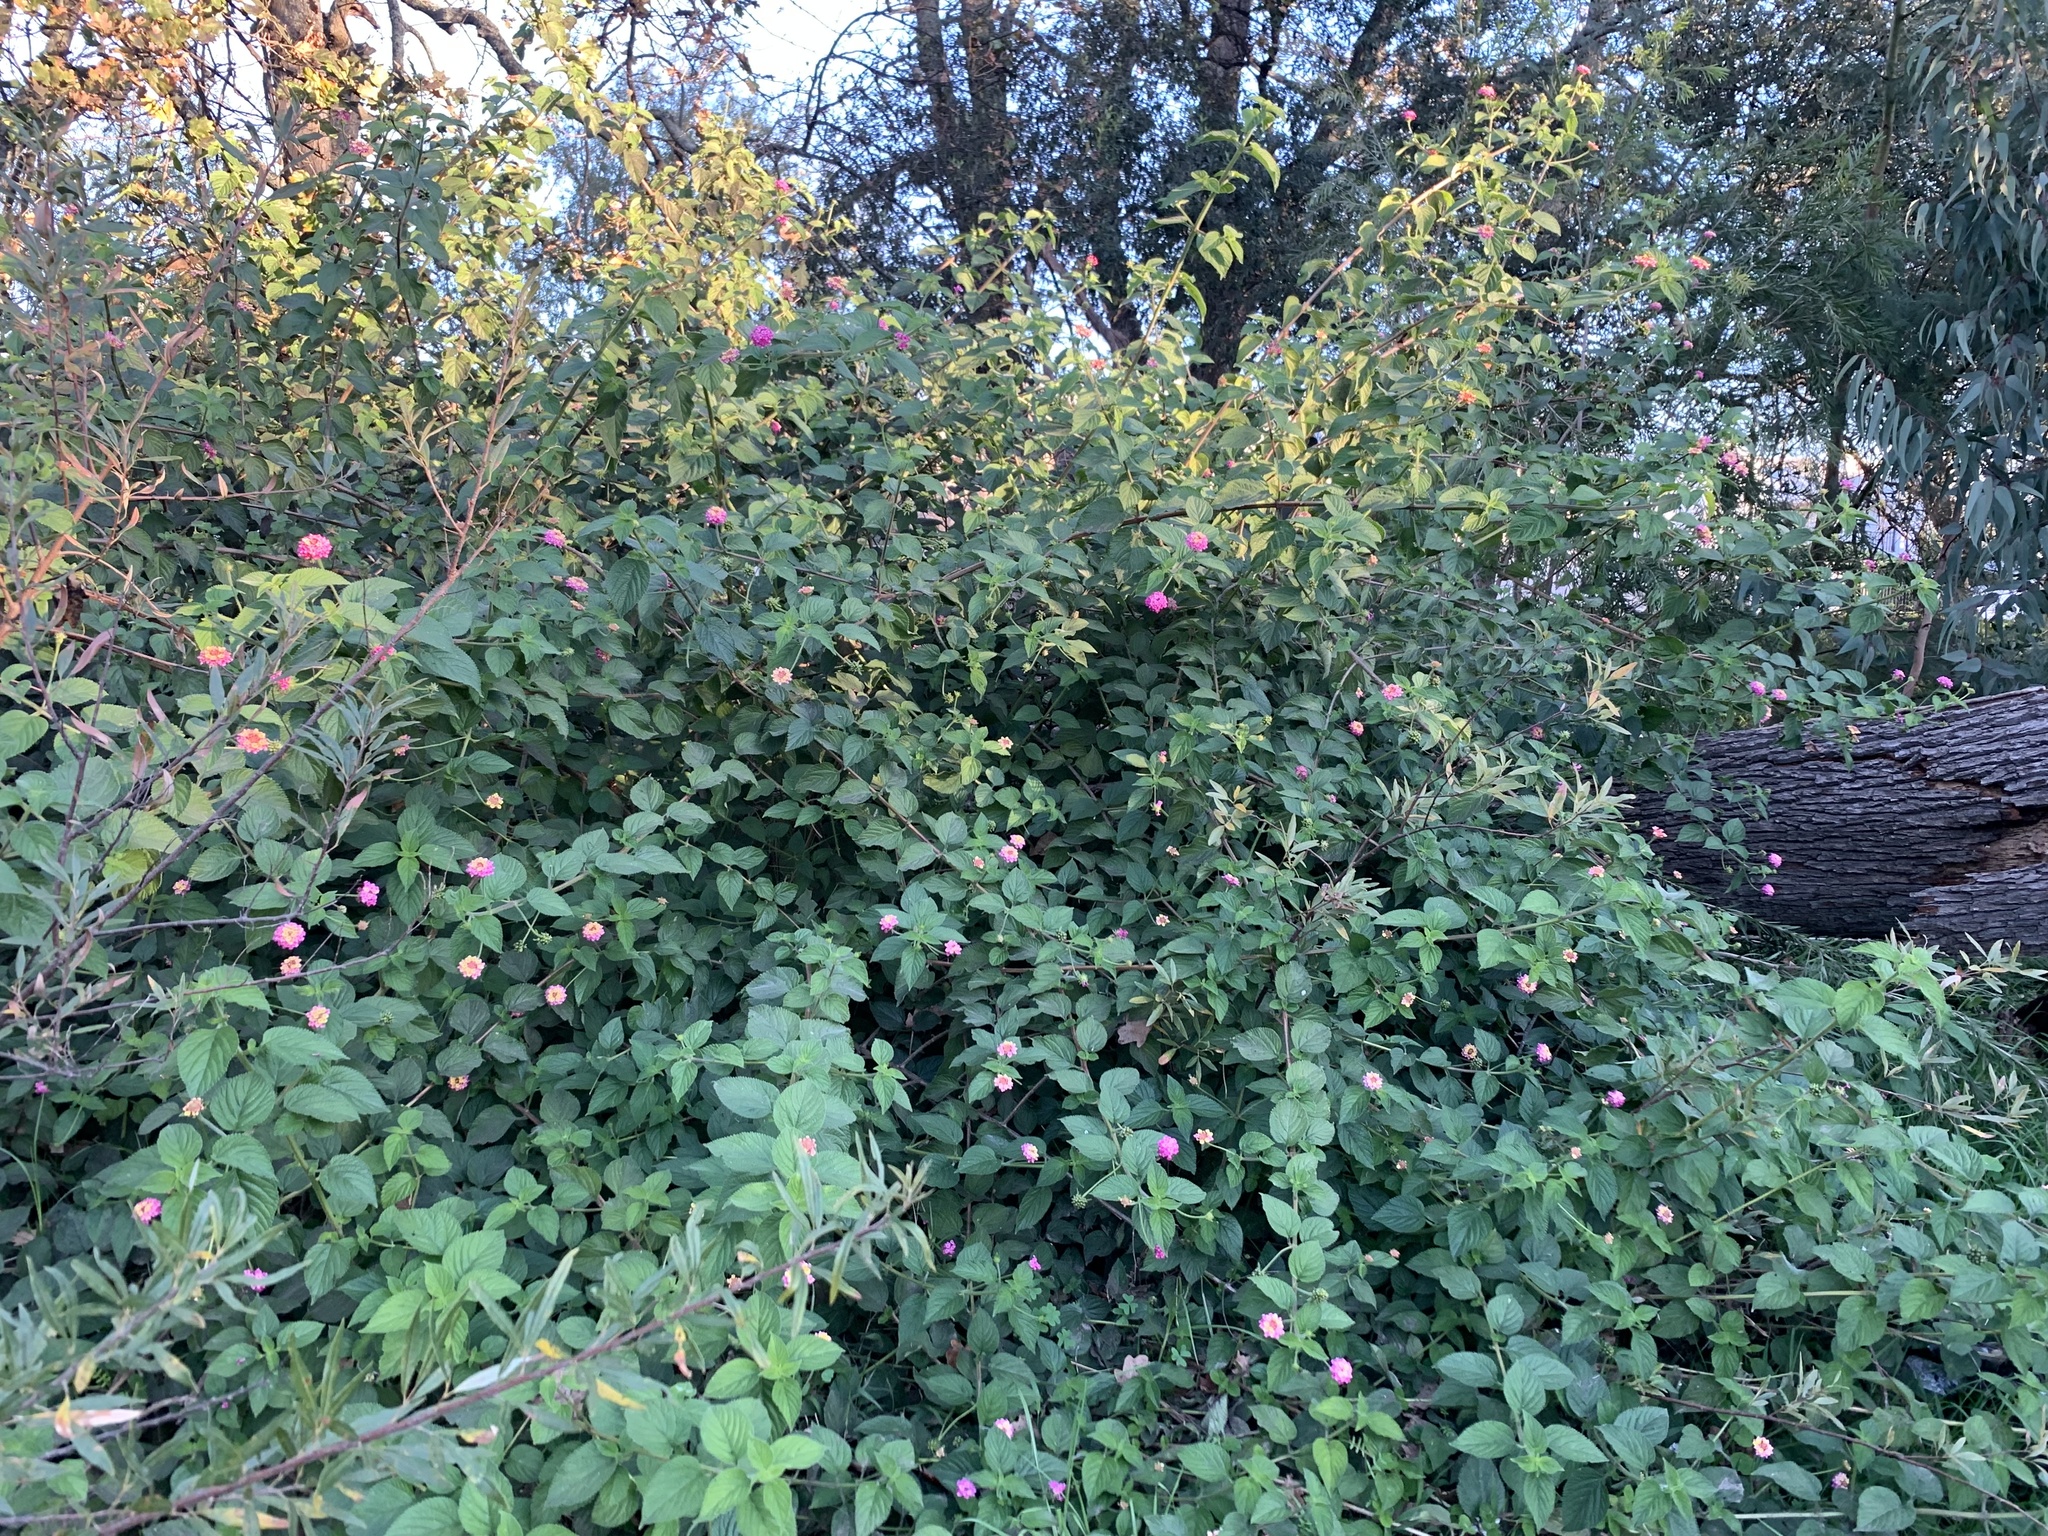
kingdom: Plantae
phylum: Tracheophyta
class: Magnoliopsida
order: Lamiales
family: Verbenaceae
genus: Lantana
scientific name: Lantana camara
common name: Lantana
